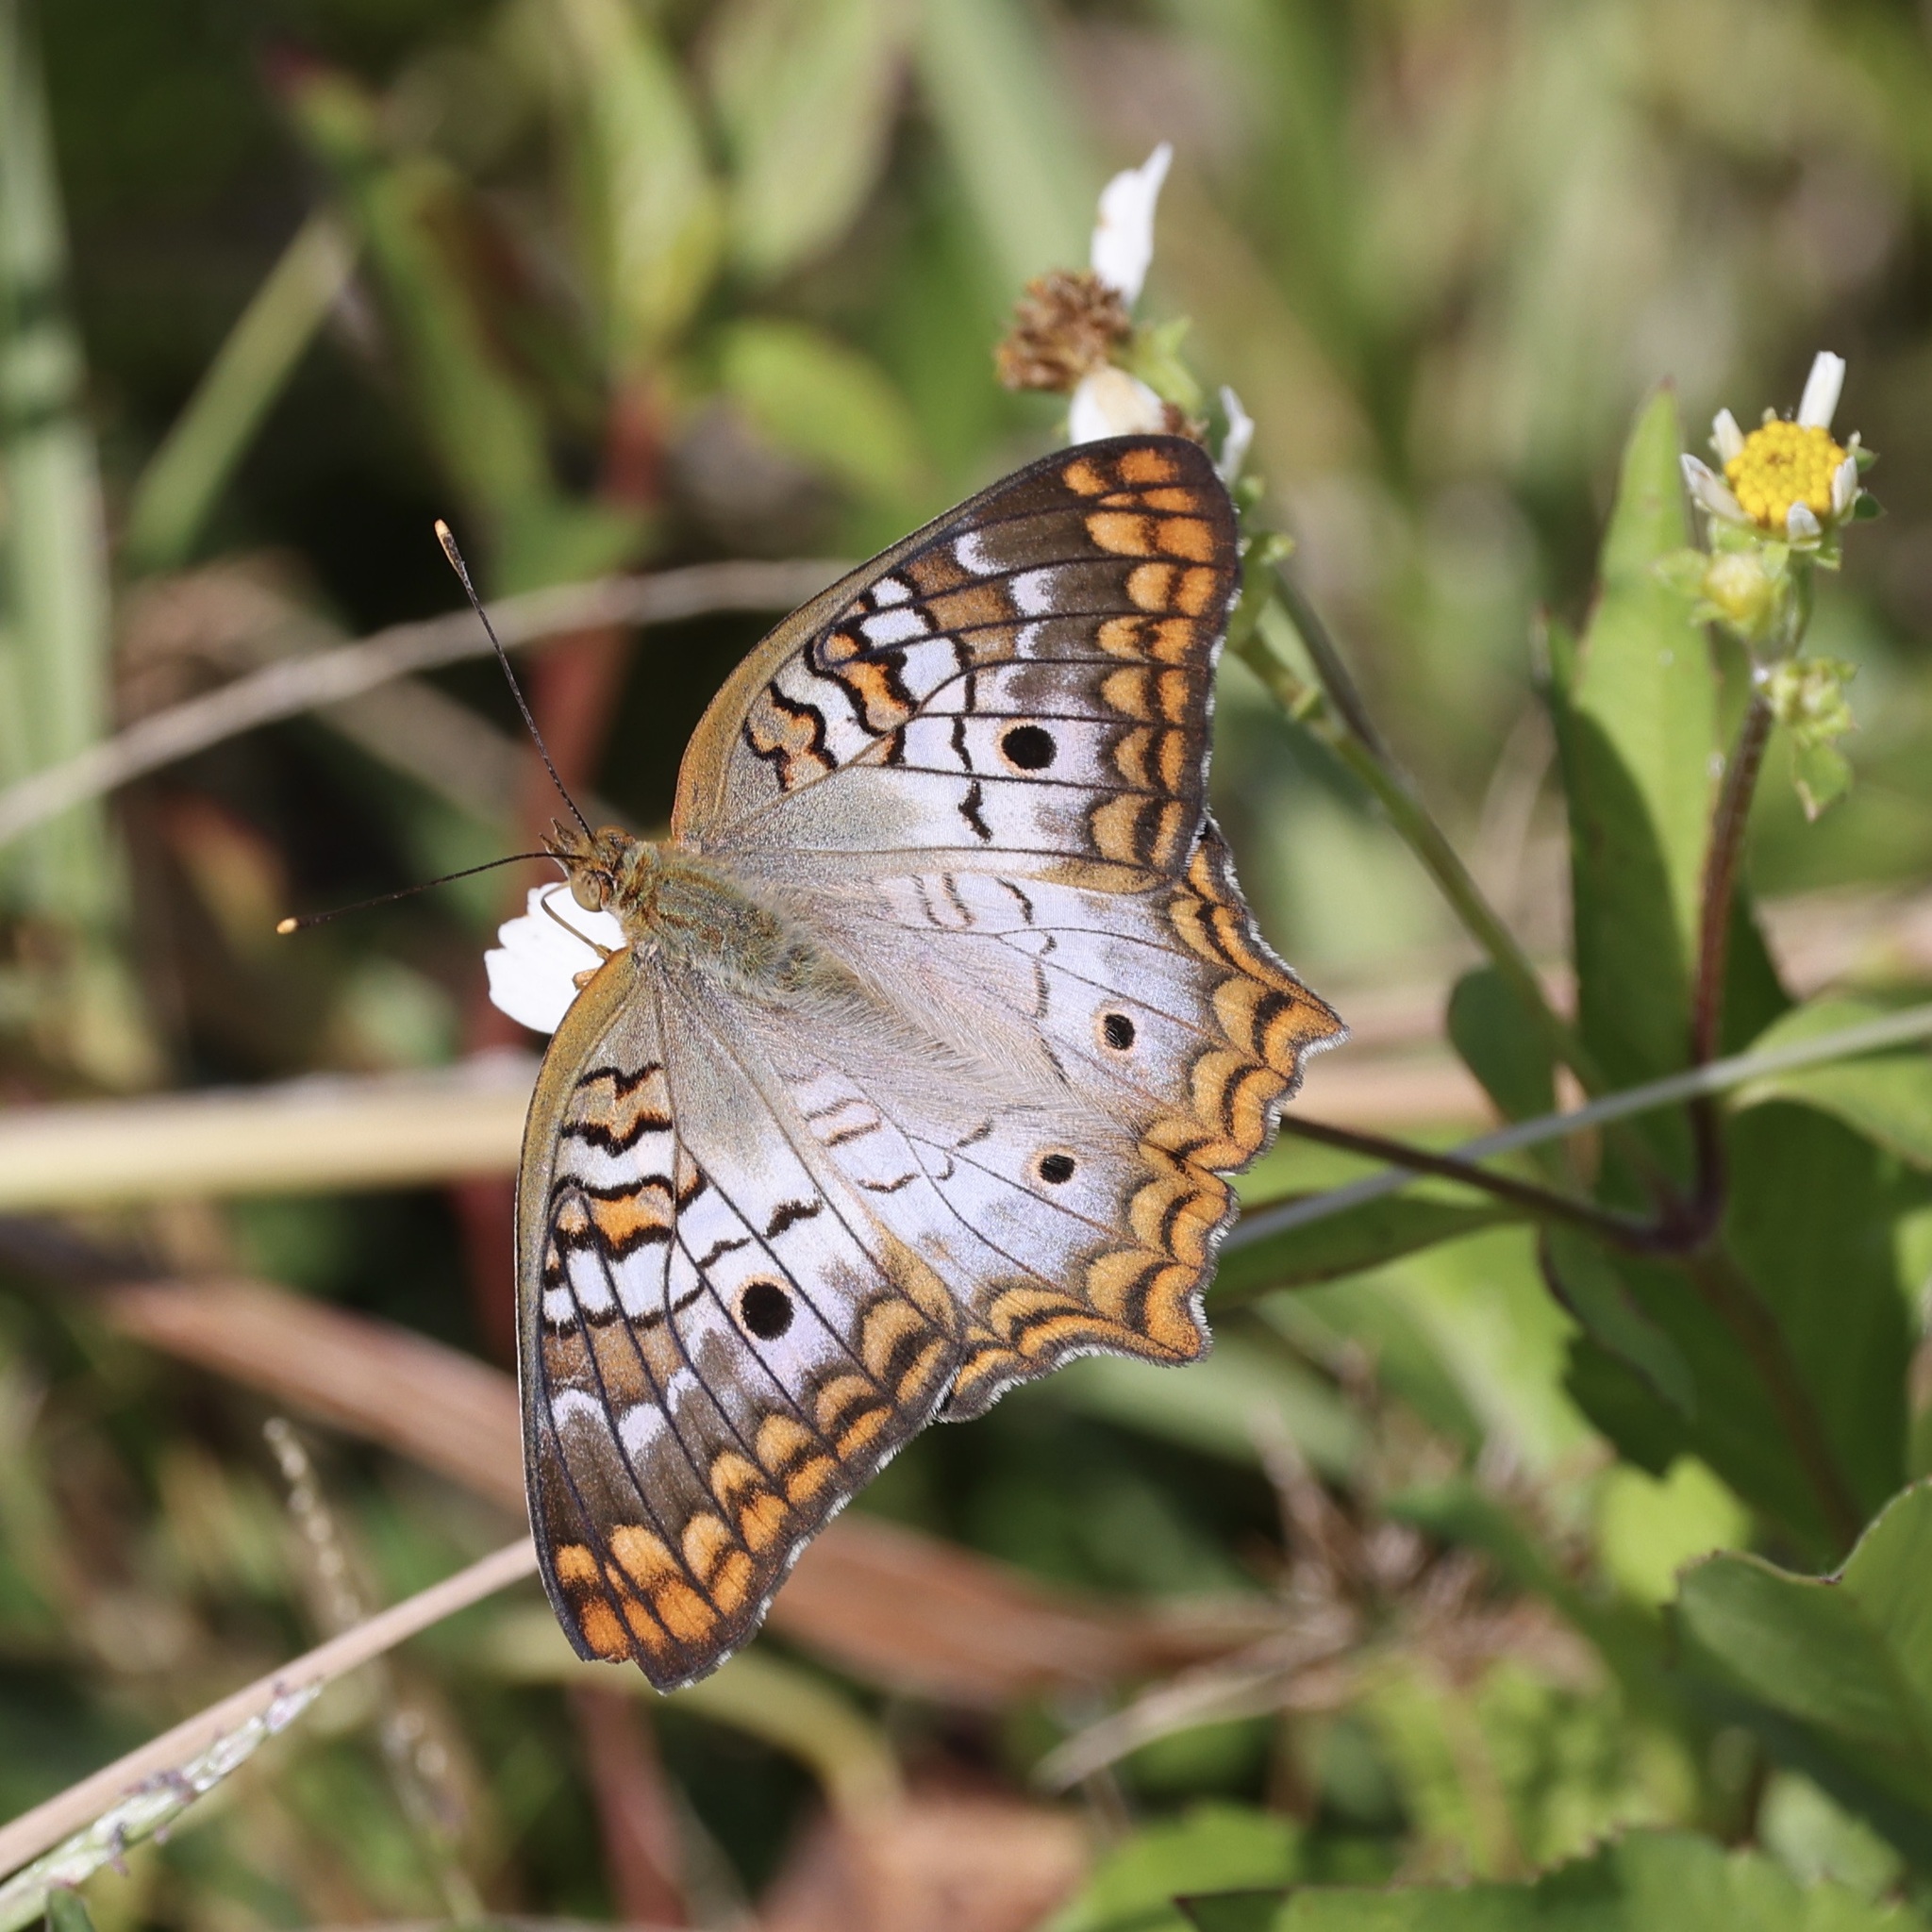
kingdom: Animalia
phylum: Arthropoda
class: Insecta
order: Lepidoptera
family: Nymphalidae
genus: Anartia
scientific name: Anartia jatrophae
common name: White peacock
